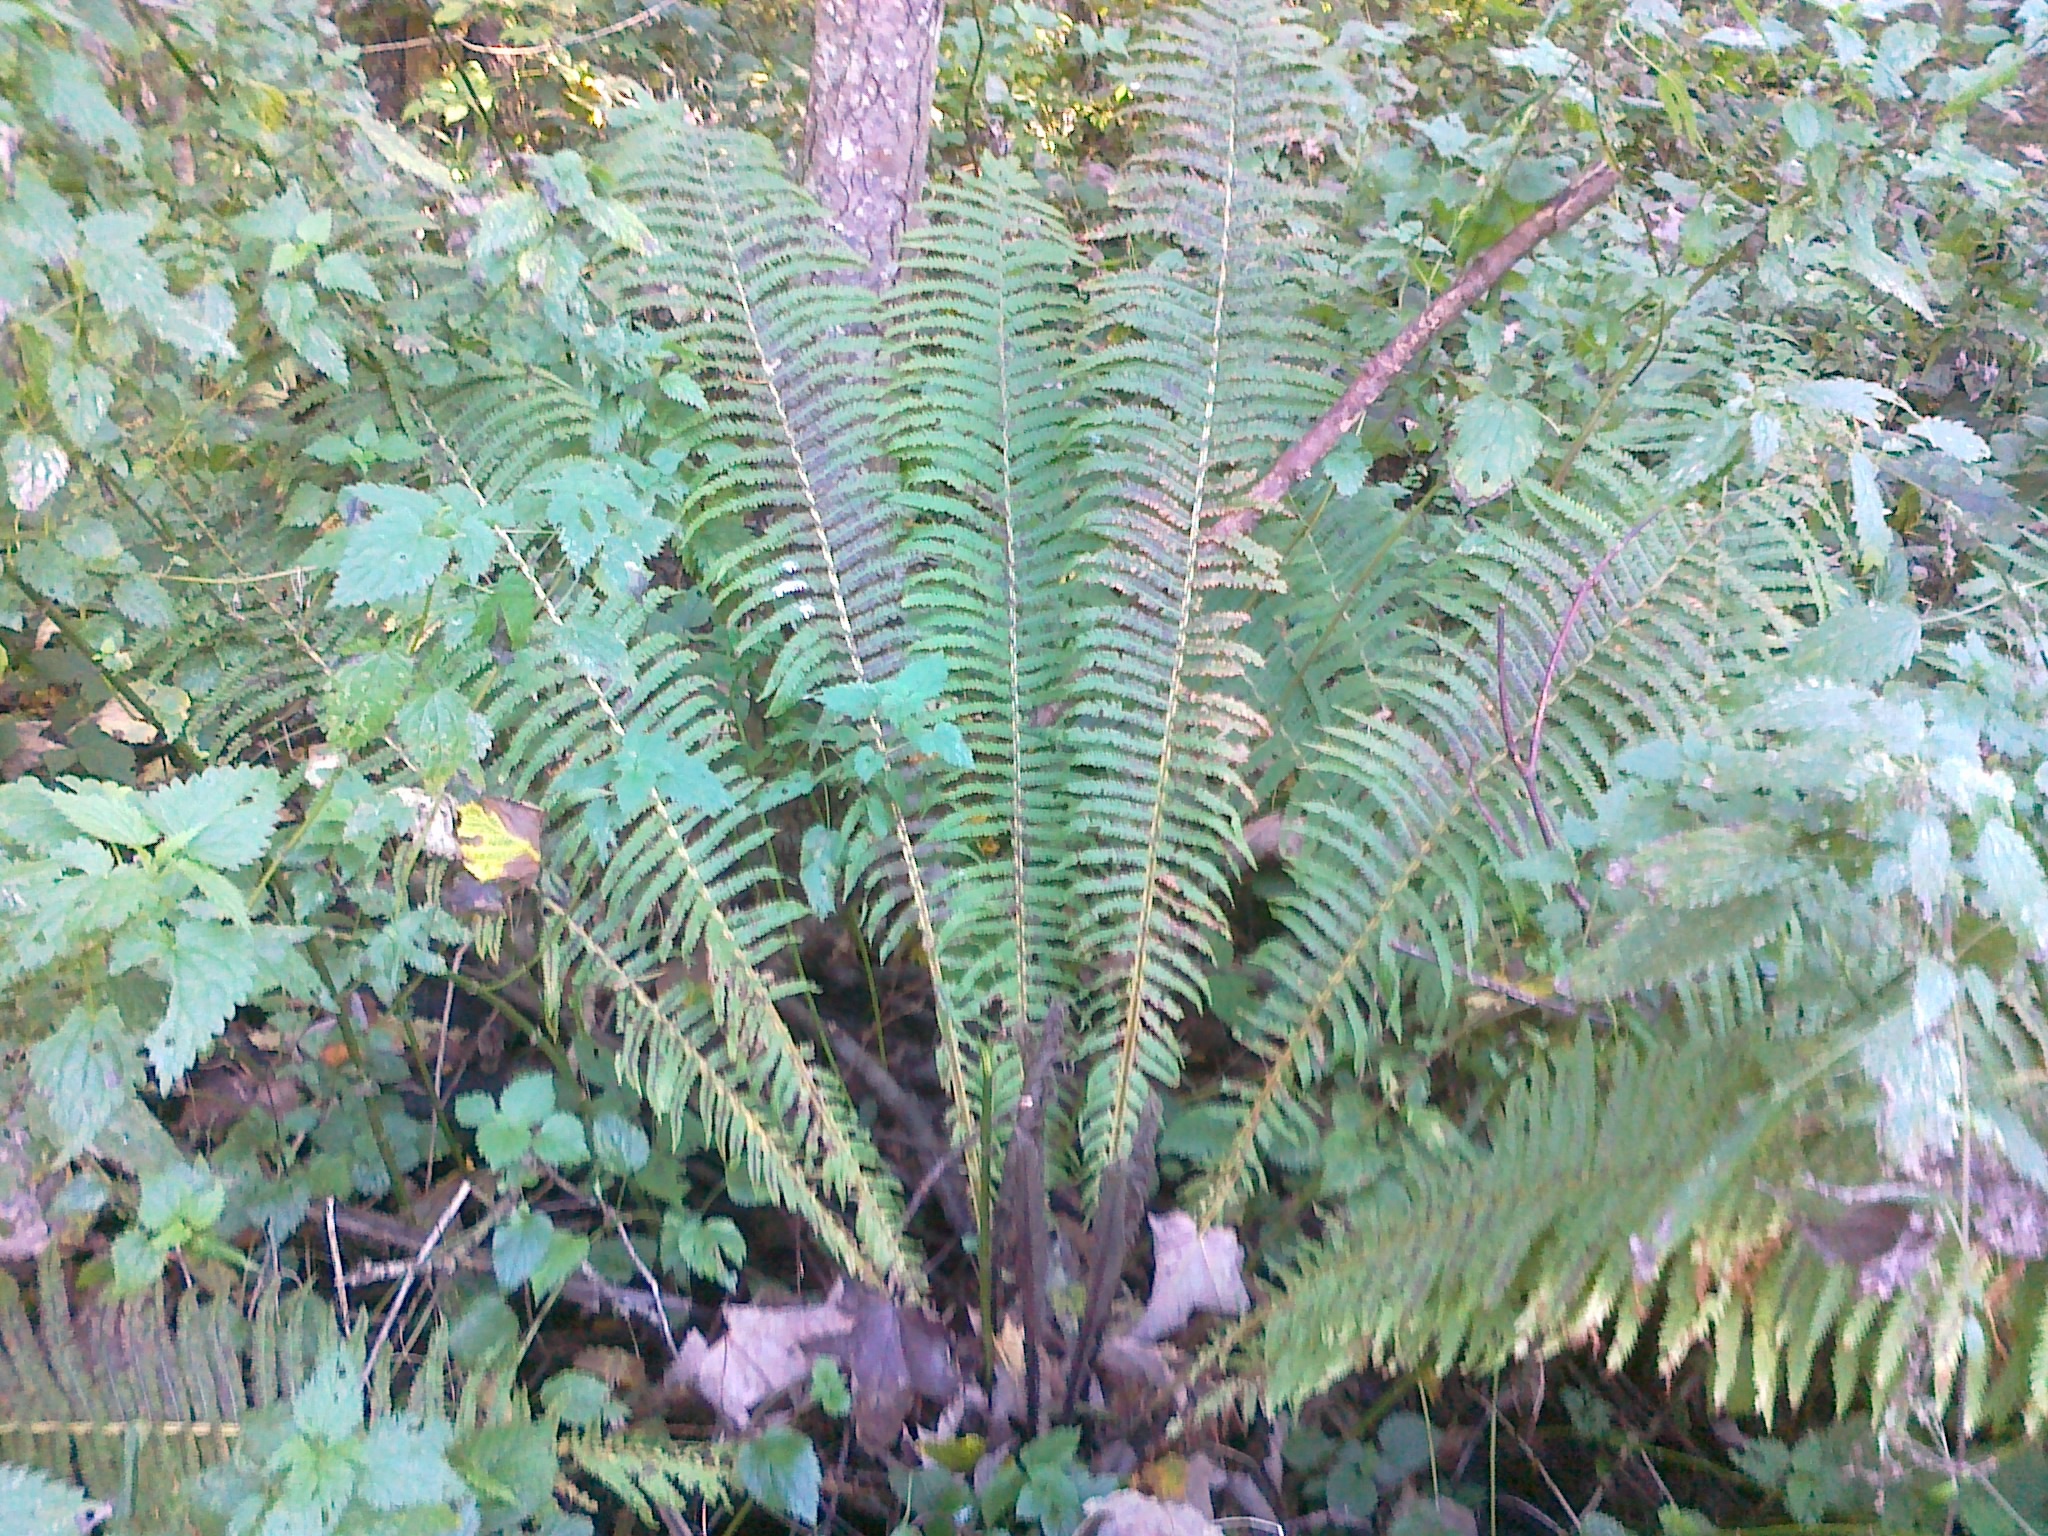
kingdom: Plantae
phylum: Tracheophyta
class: Polypodiopsida
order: Polypodiales
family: Onocleaceae
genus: Matteuccia
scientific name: Matteuccia struthiopteris
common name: Ostrich fern
